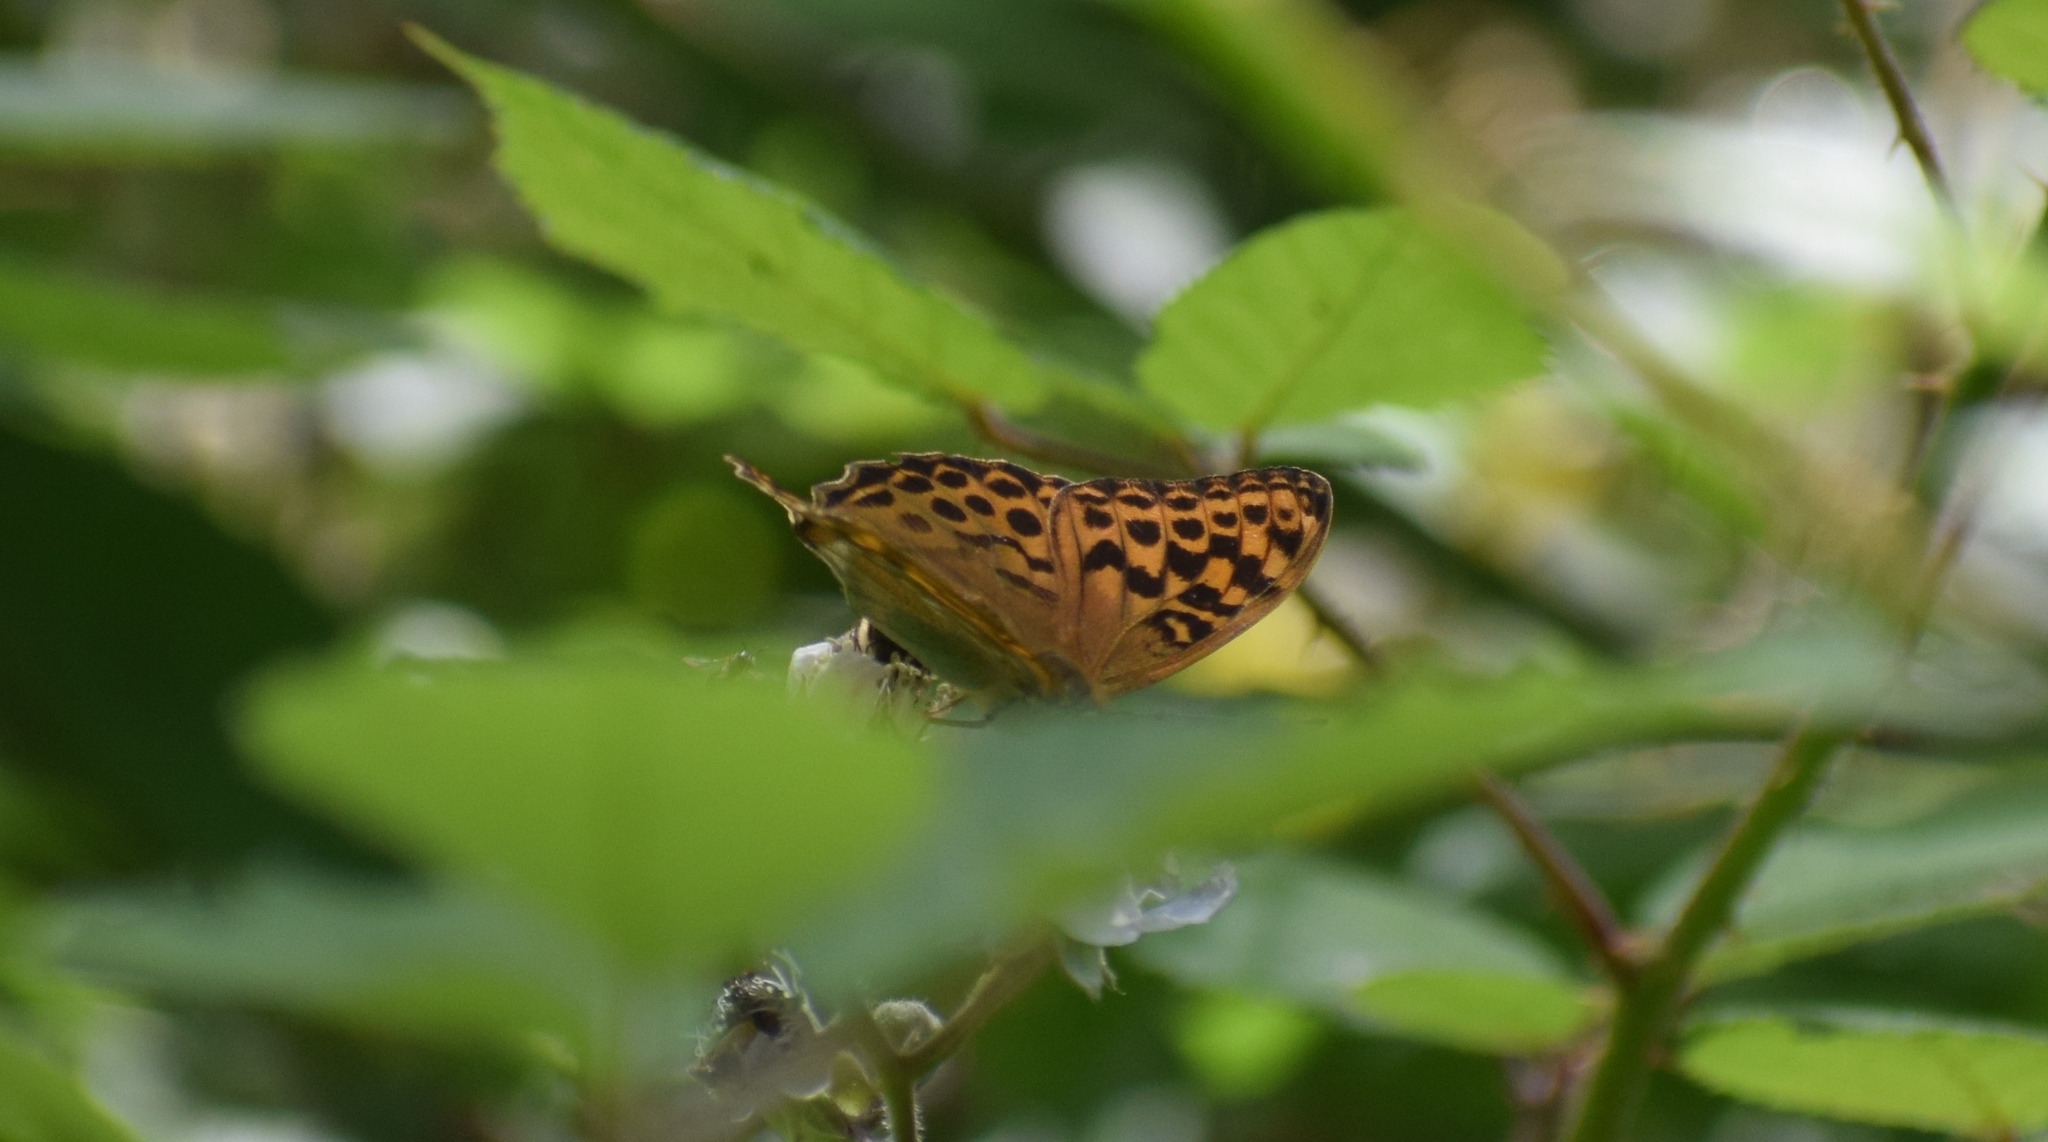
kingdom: Animalia
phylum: Arthropoda
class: Insecta
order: Lepidoptera
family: Nymphalidae
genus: Argynnis
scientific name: Argynnis paphia
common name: Silver-washed fritillary
